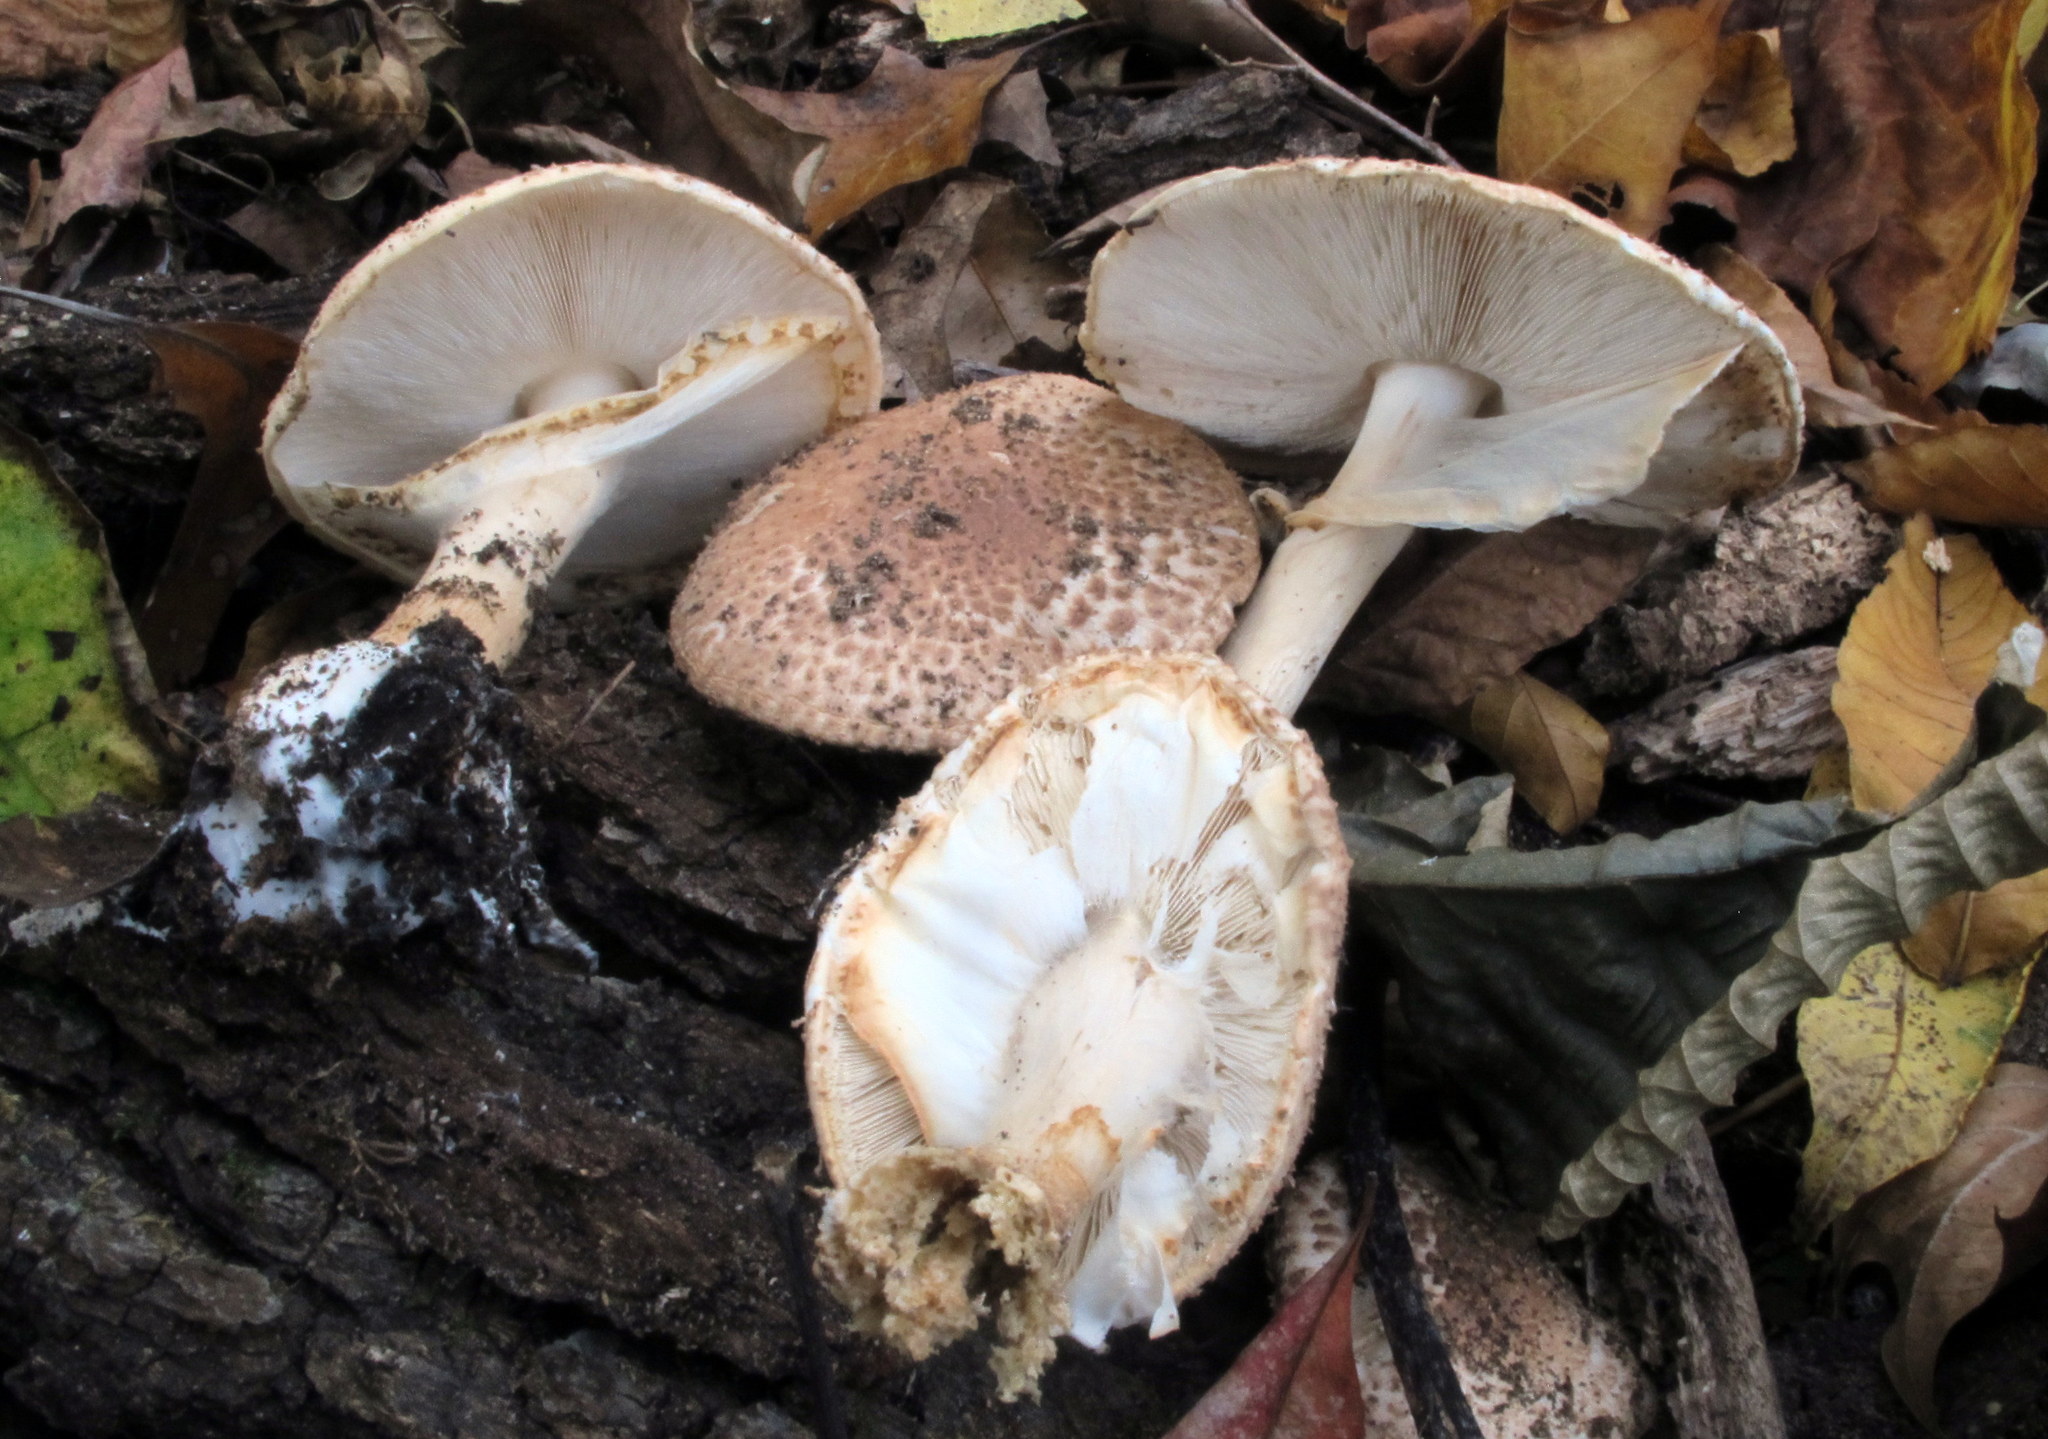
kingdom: Fungi
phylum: Basidiomycota
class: Agaricomycetes
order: Agaricales
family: Agaricaceae
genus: Echinoderma
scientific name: Echinoderma asperum
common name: Freckled dapperling
